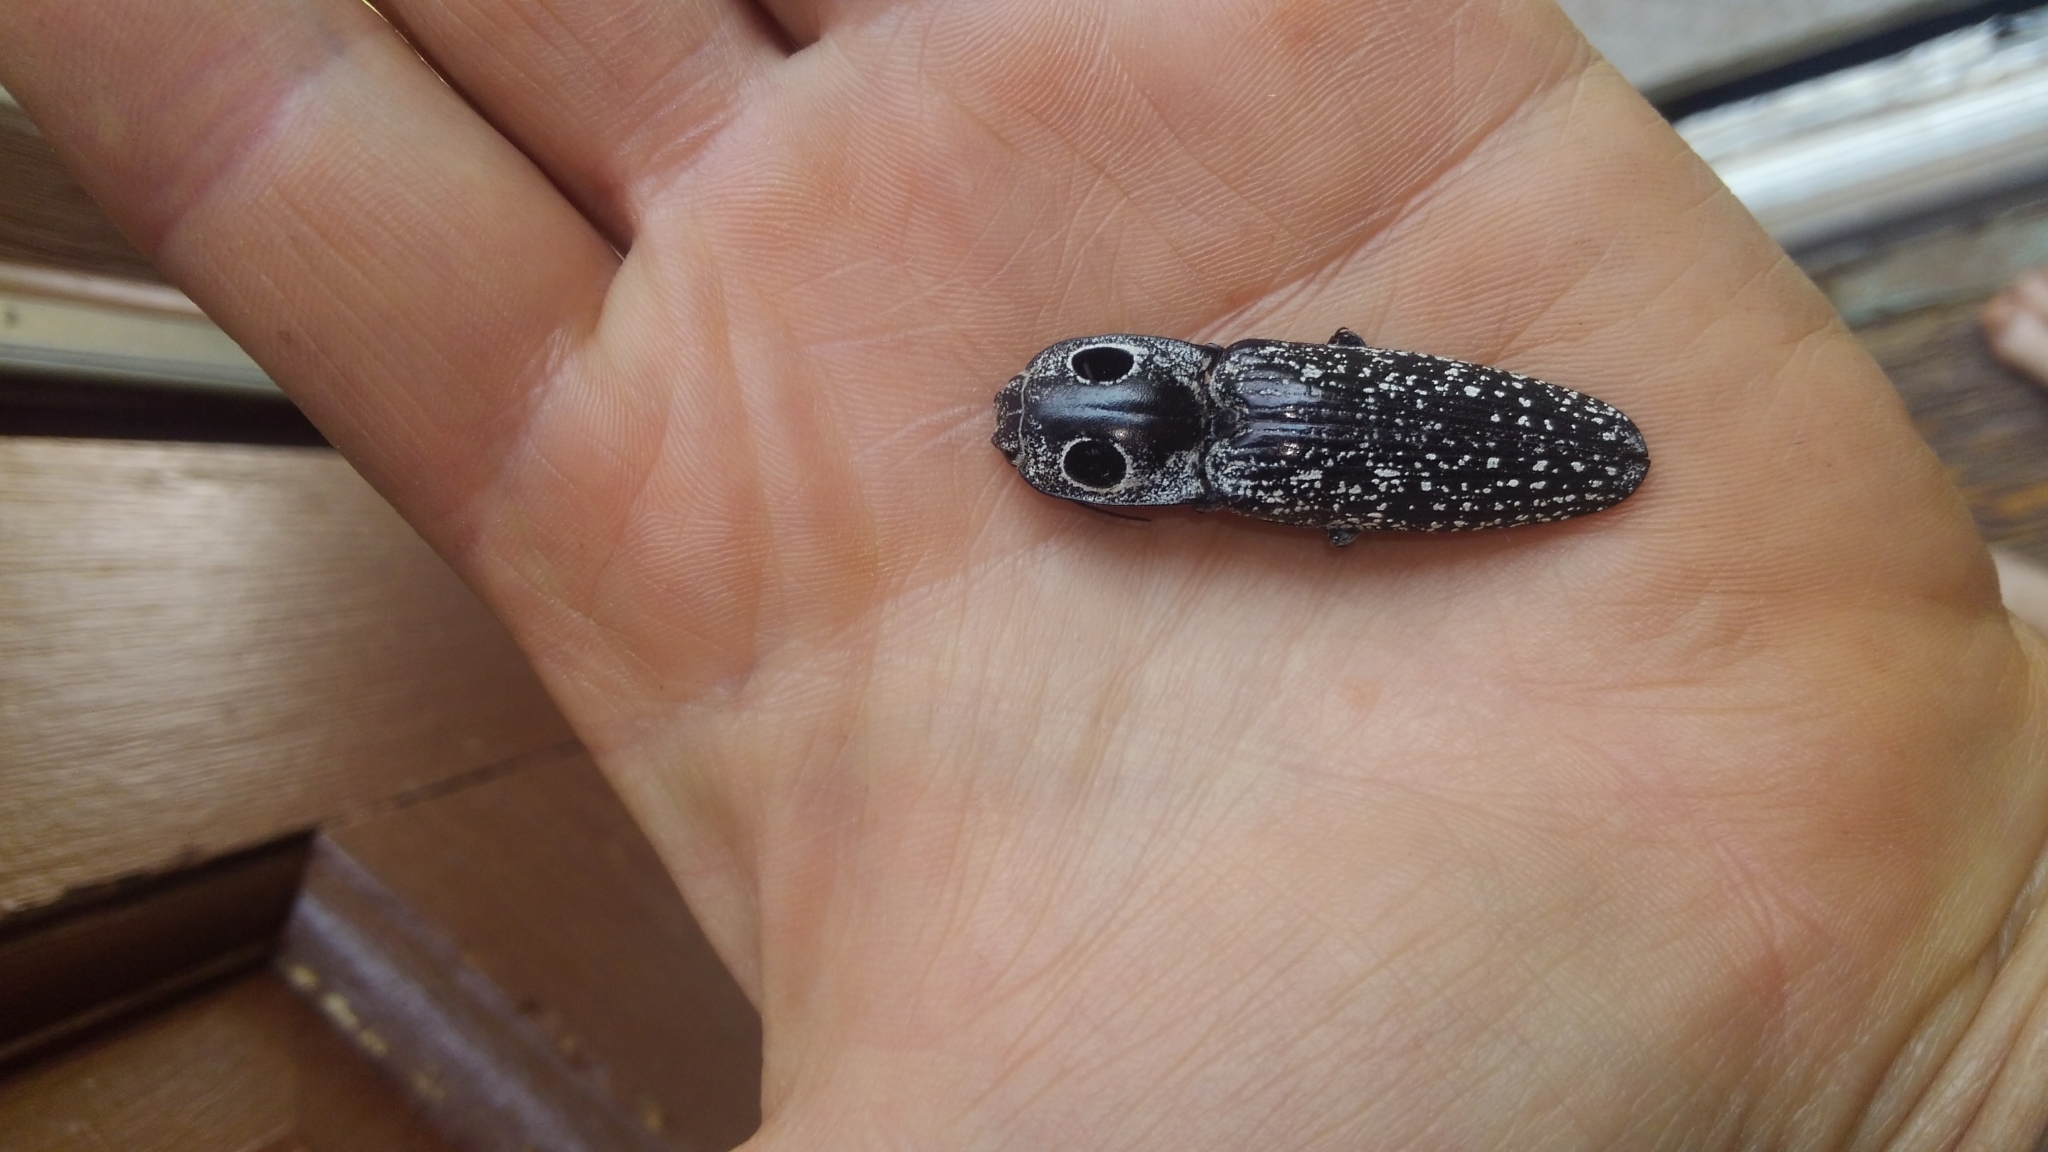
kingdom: Animalia
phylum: Arthropoda
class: Insecta
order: Coleoptera
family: Elateridae
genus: Alaus
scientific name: Alaus oculatus
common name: Eastern eyed click beetle
